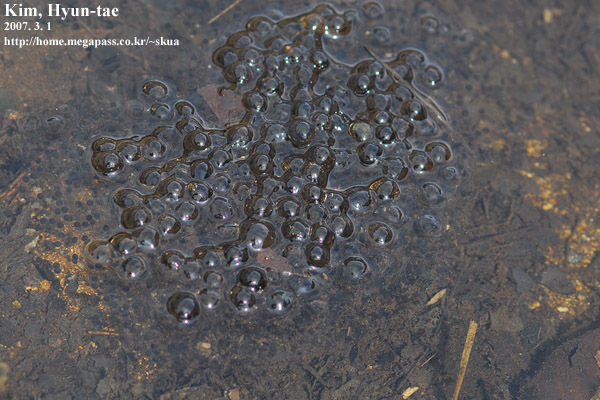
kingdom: Animalia
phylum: Chordata
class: Amphibia
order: Anura
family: Ranidae
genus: Rana
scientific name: Rana uenoi
